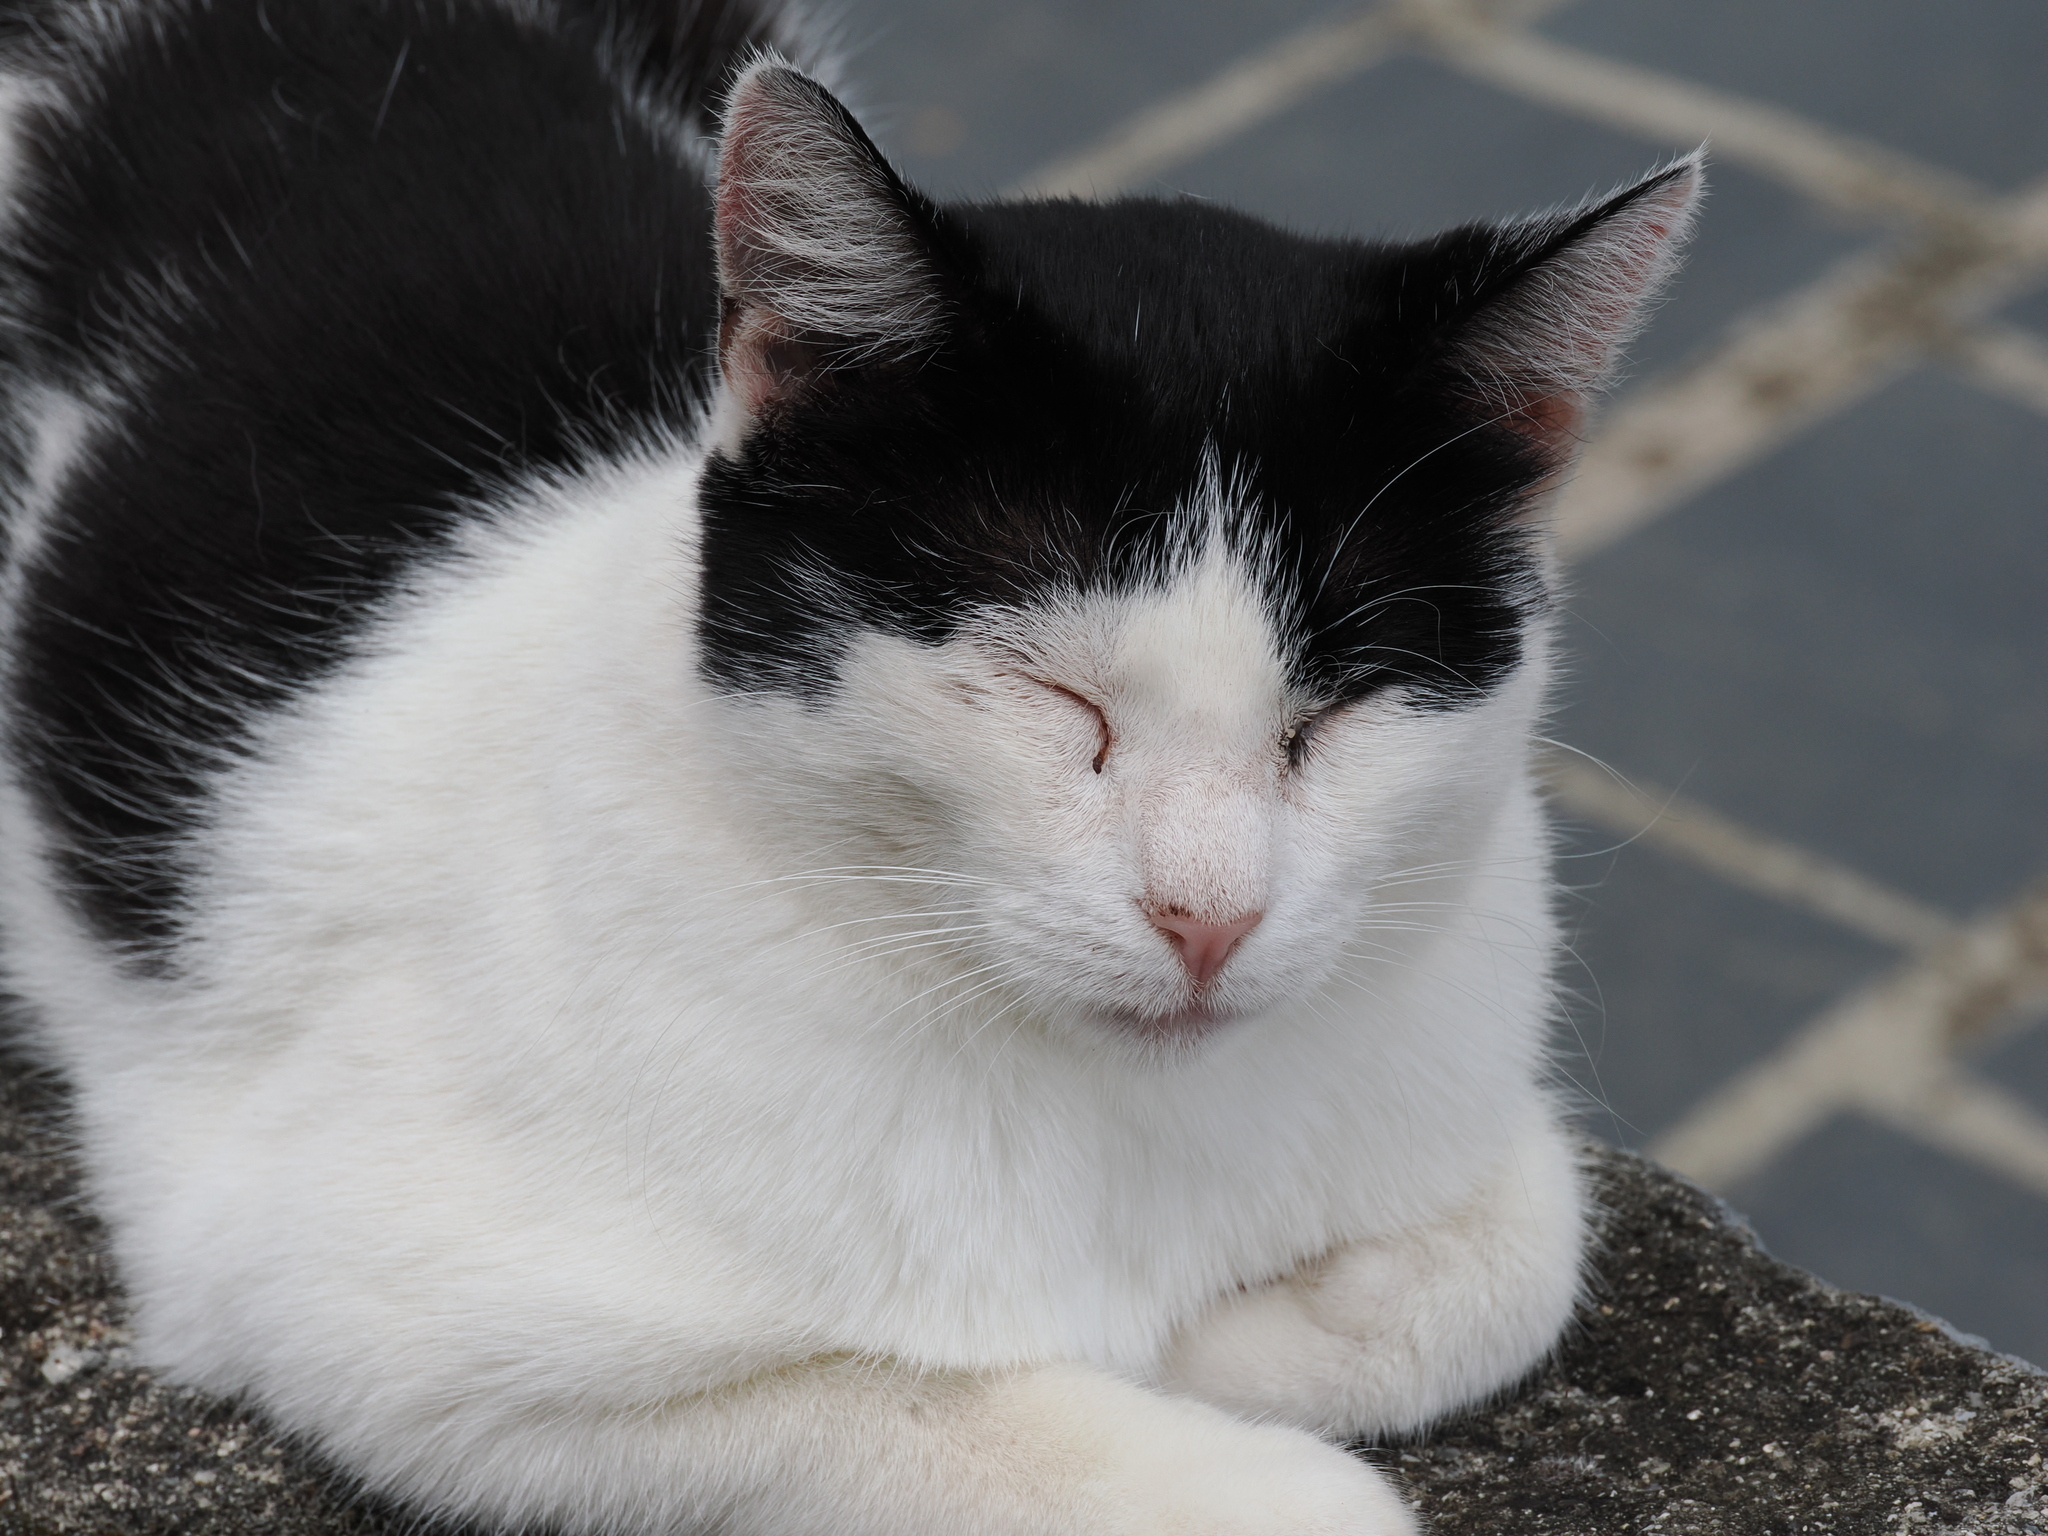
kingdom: Animalia
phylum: Chordata
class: Mammalia
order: Carnivora
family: Felidae
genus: Felis
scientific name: Felis catus
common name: Domestic cat
